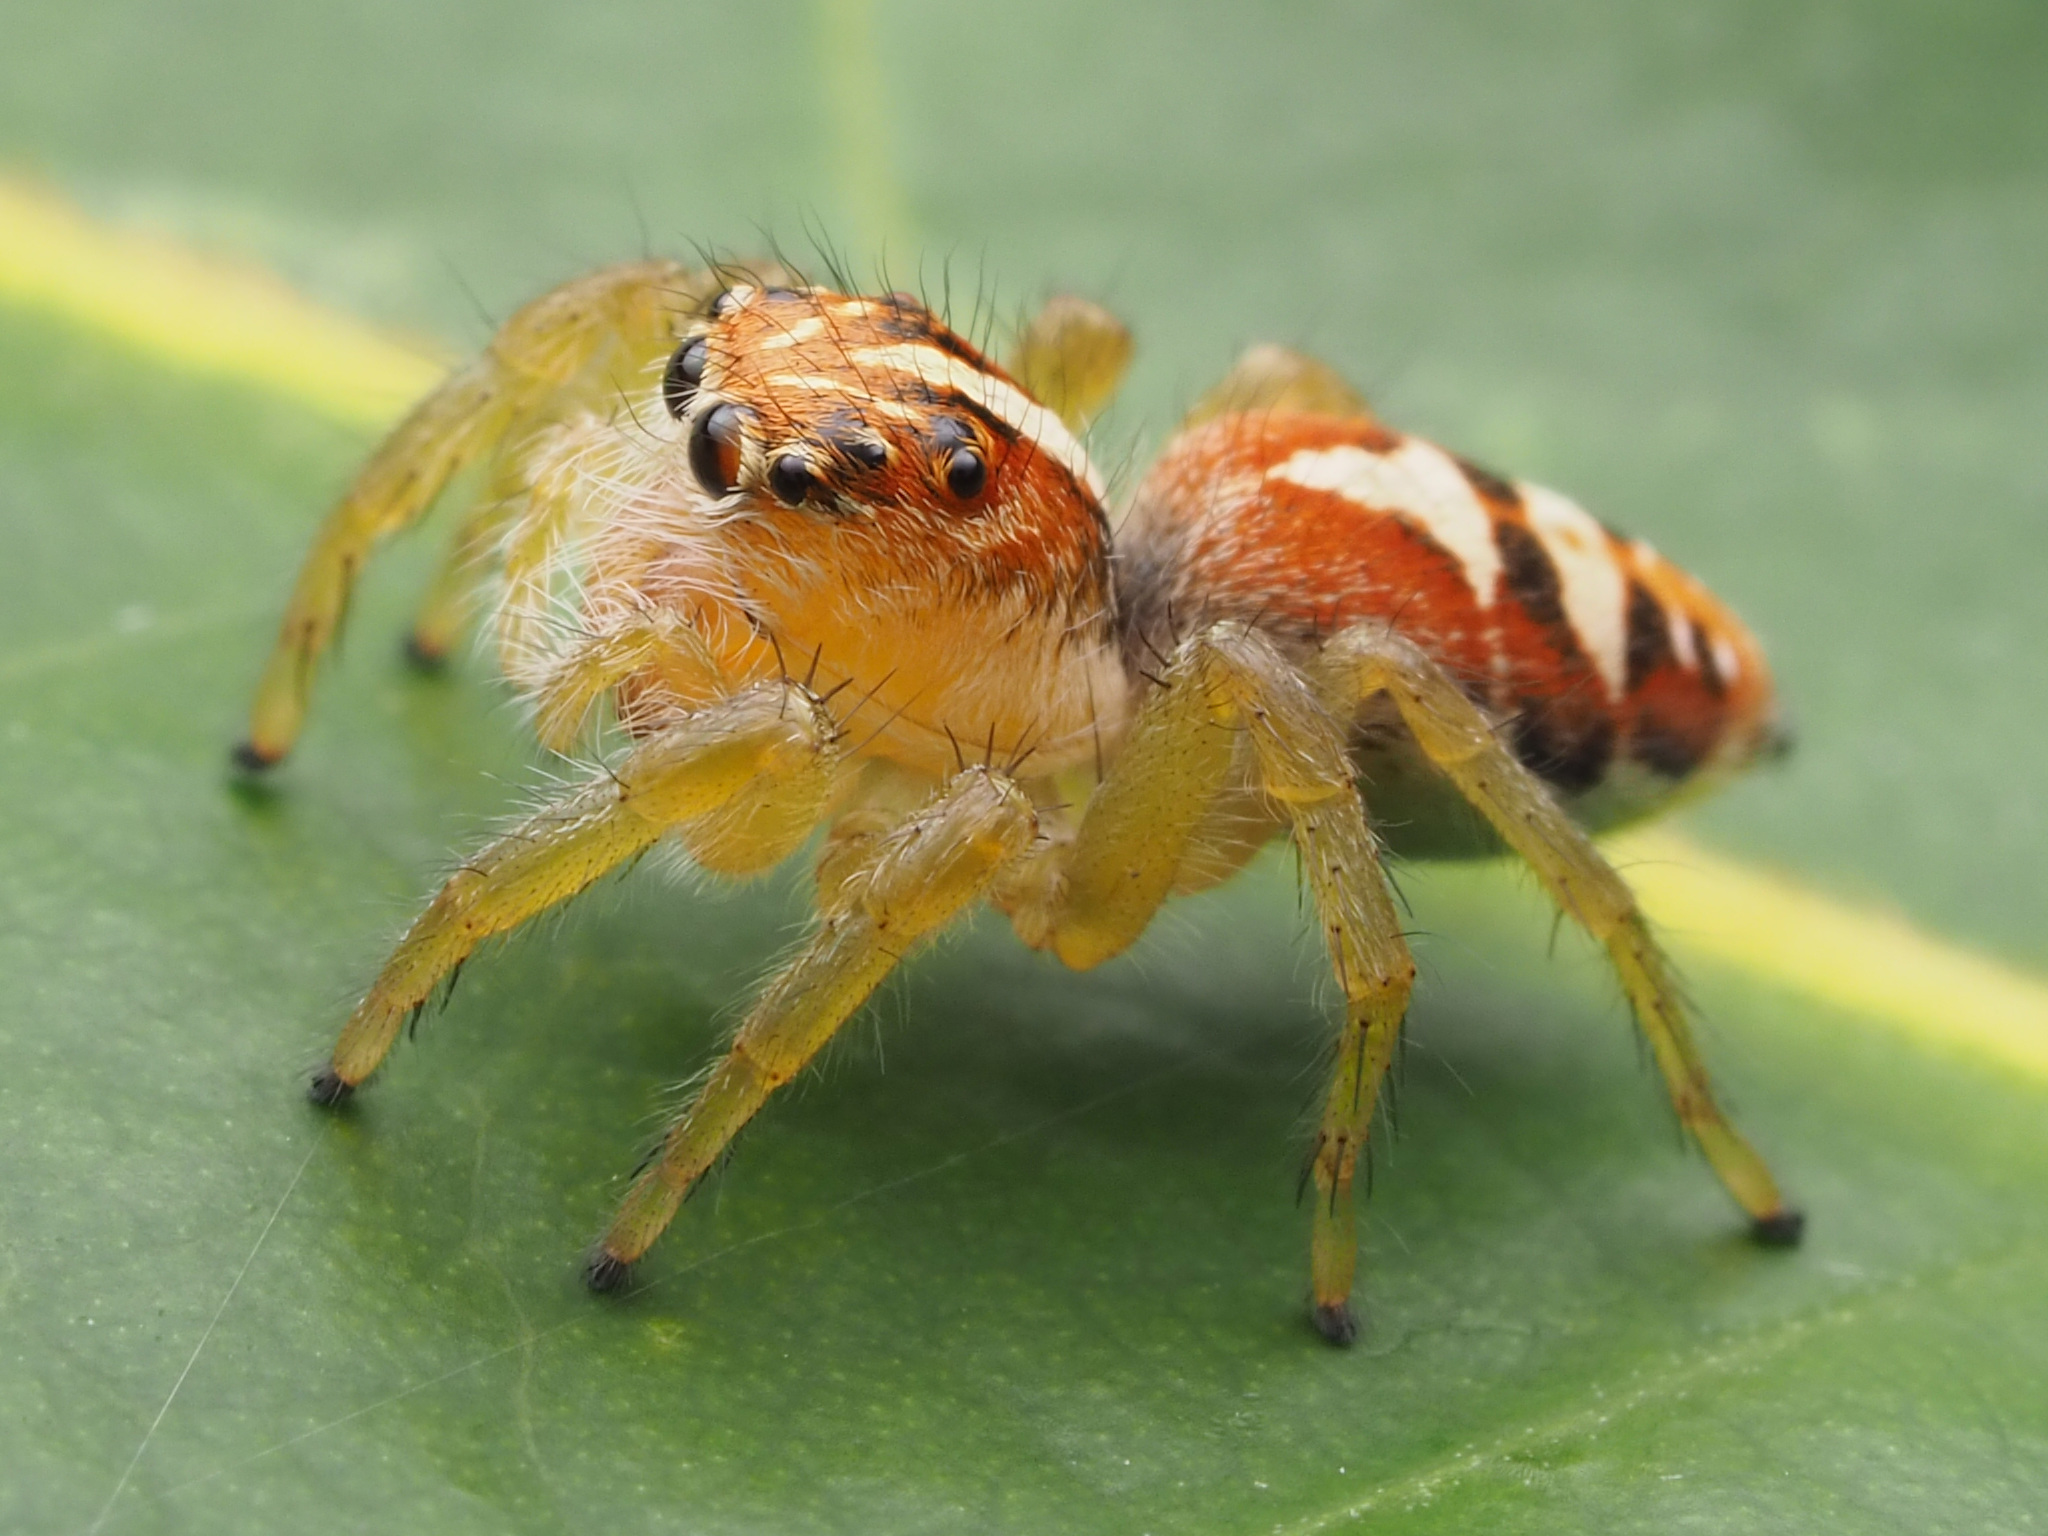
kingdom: Animalia
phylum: Arthropoda
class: Arachnida
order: Araneae
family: Salticidae
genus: Frigga
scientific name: Frigga pratensis
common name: Jumping spiders
